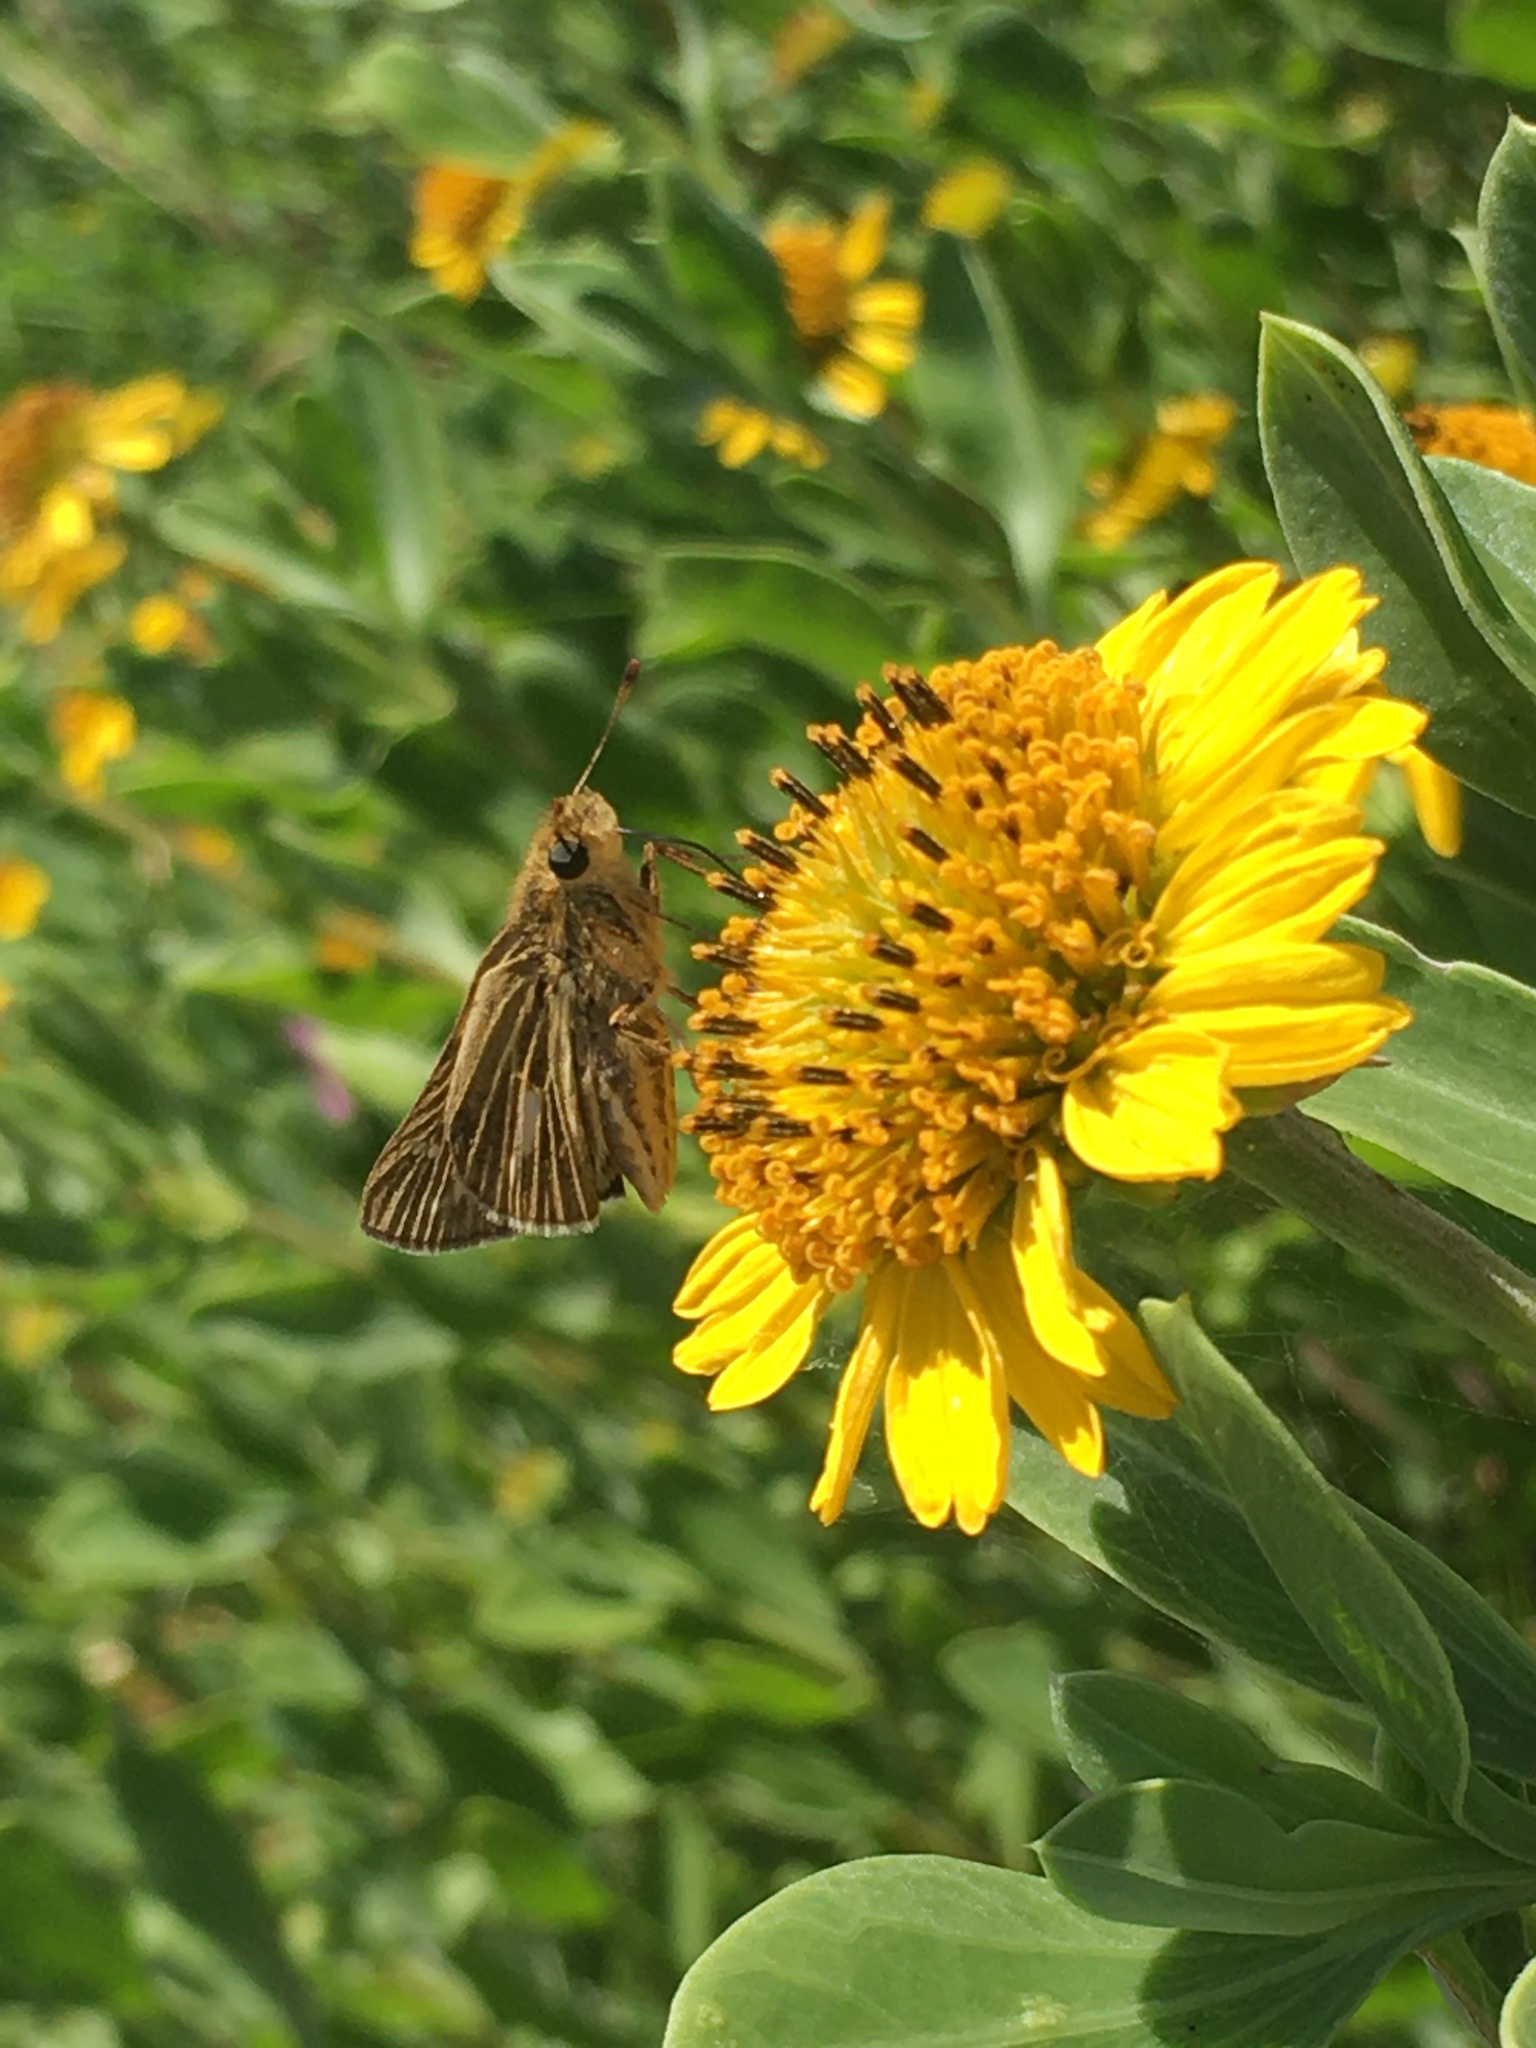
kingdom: Animalia
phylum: Arthropoda
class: Insecta
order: Lepidoptera
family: Hesperiidae
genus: Panoquina
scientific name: Panoquina panoquin
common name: Salt marsh skipper
